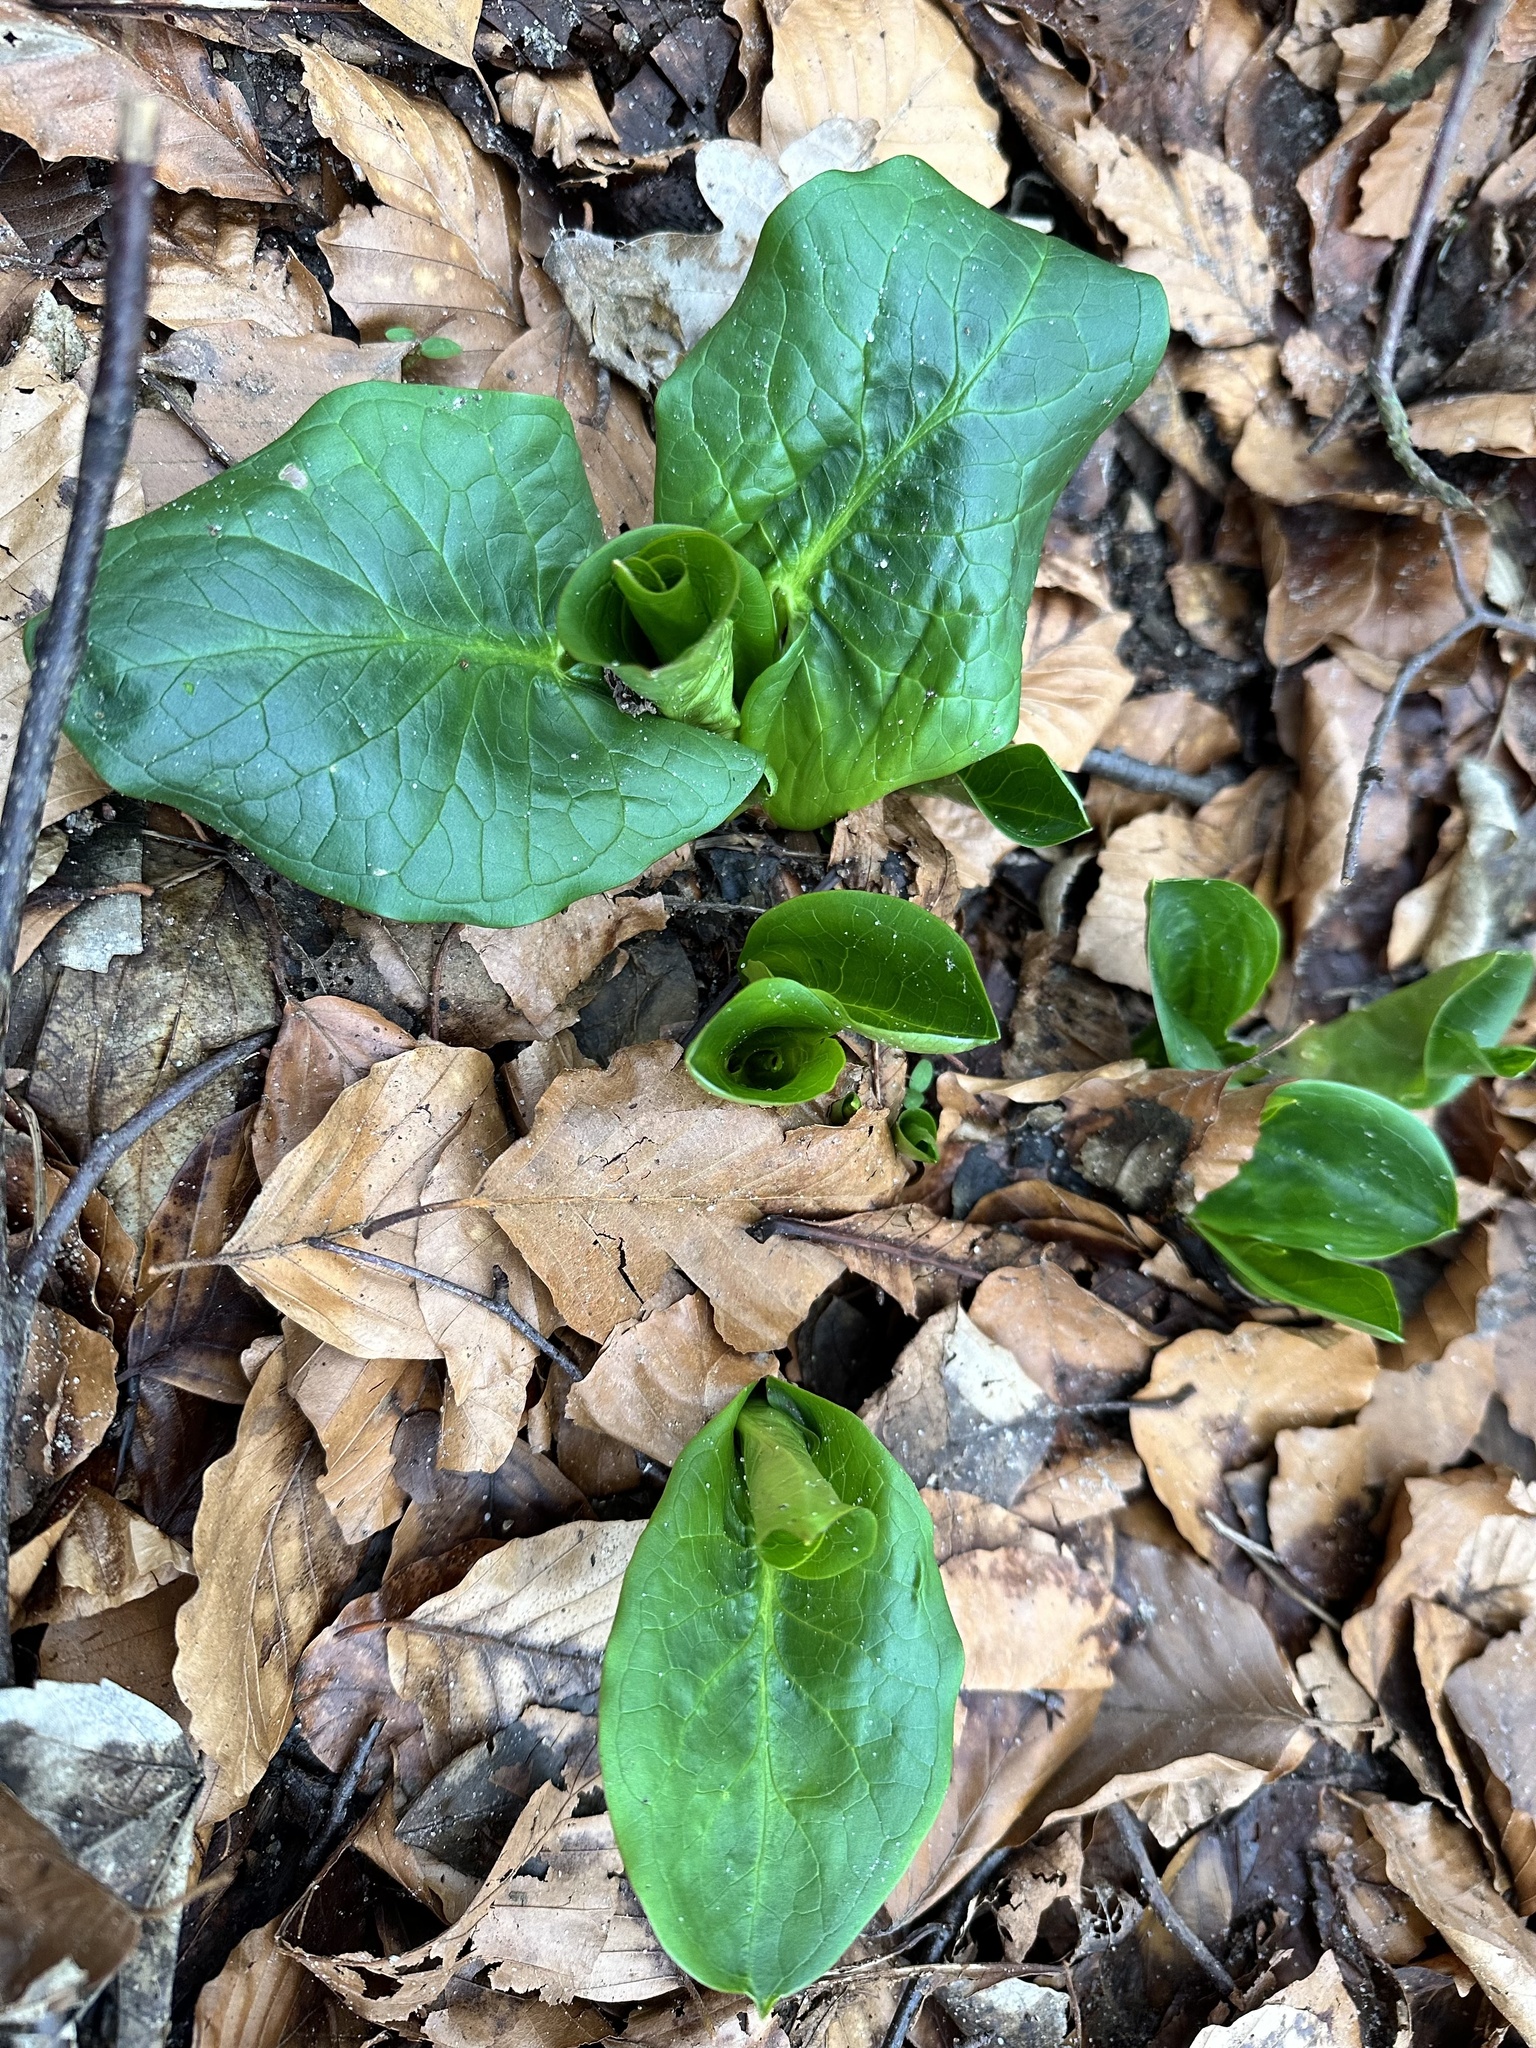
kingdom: Plantae
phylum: Tracheophyta
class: Liliopsida
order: Alismatales
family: Araceae
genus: Arum
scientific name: Arum maculatum
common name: Lords-and-ladies
